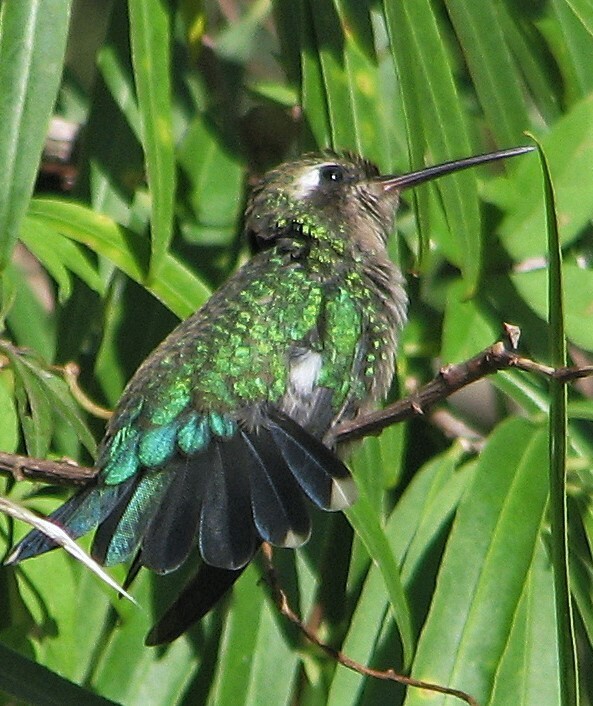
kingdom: Animalia
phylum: Chordata
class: Aves
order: Apodiformes
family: Trochilidae
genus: Chlorostilbon
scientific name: Chlorostilbon lucidus
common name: Glittering-bellied emerald
